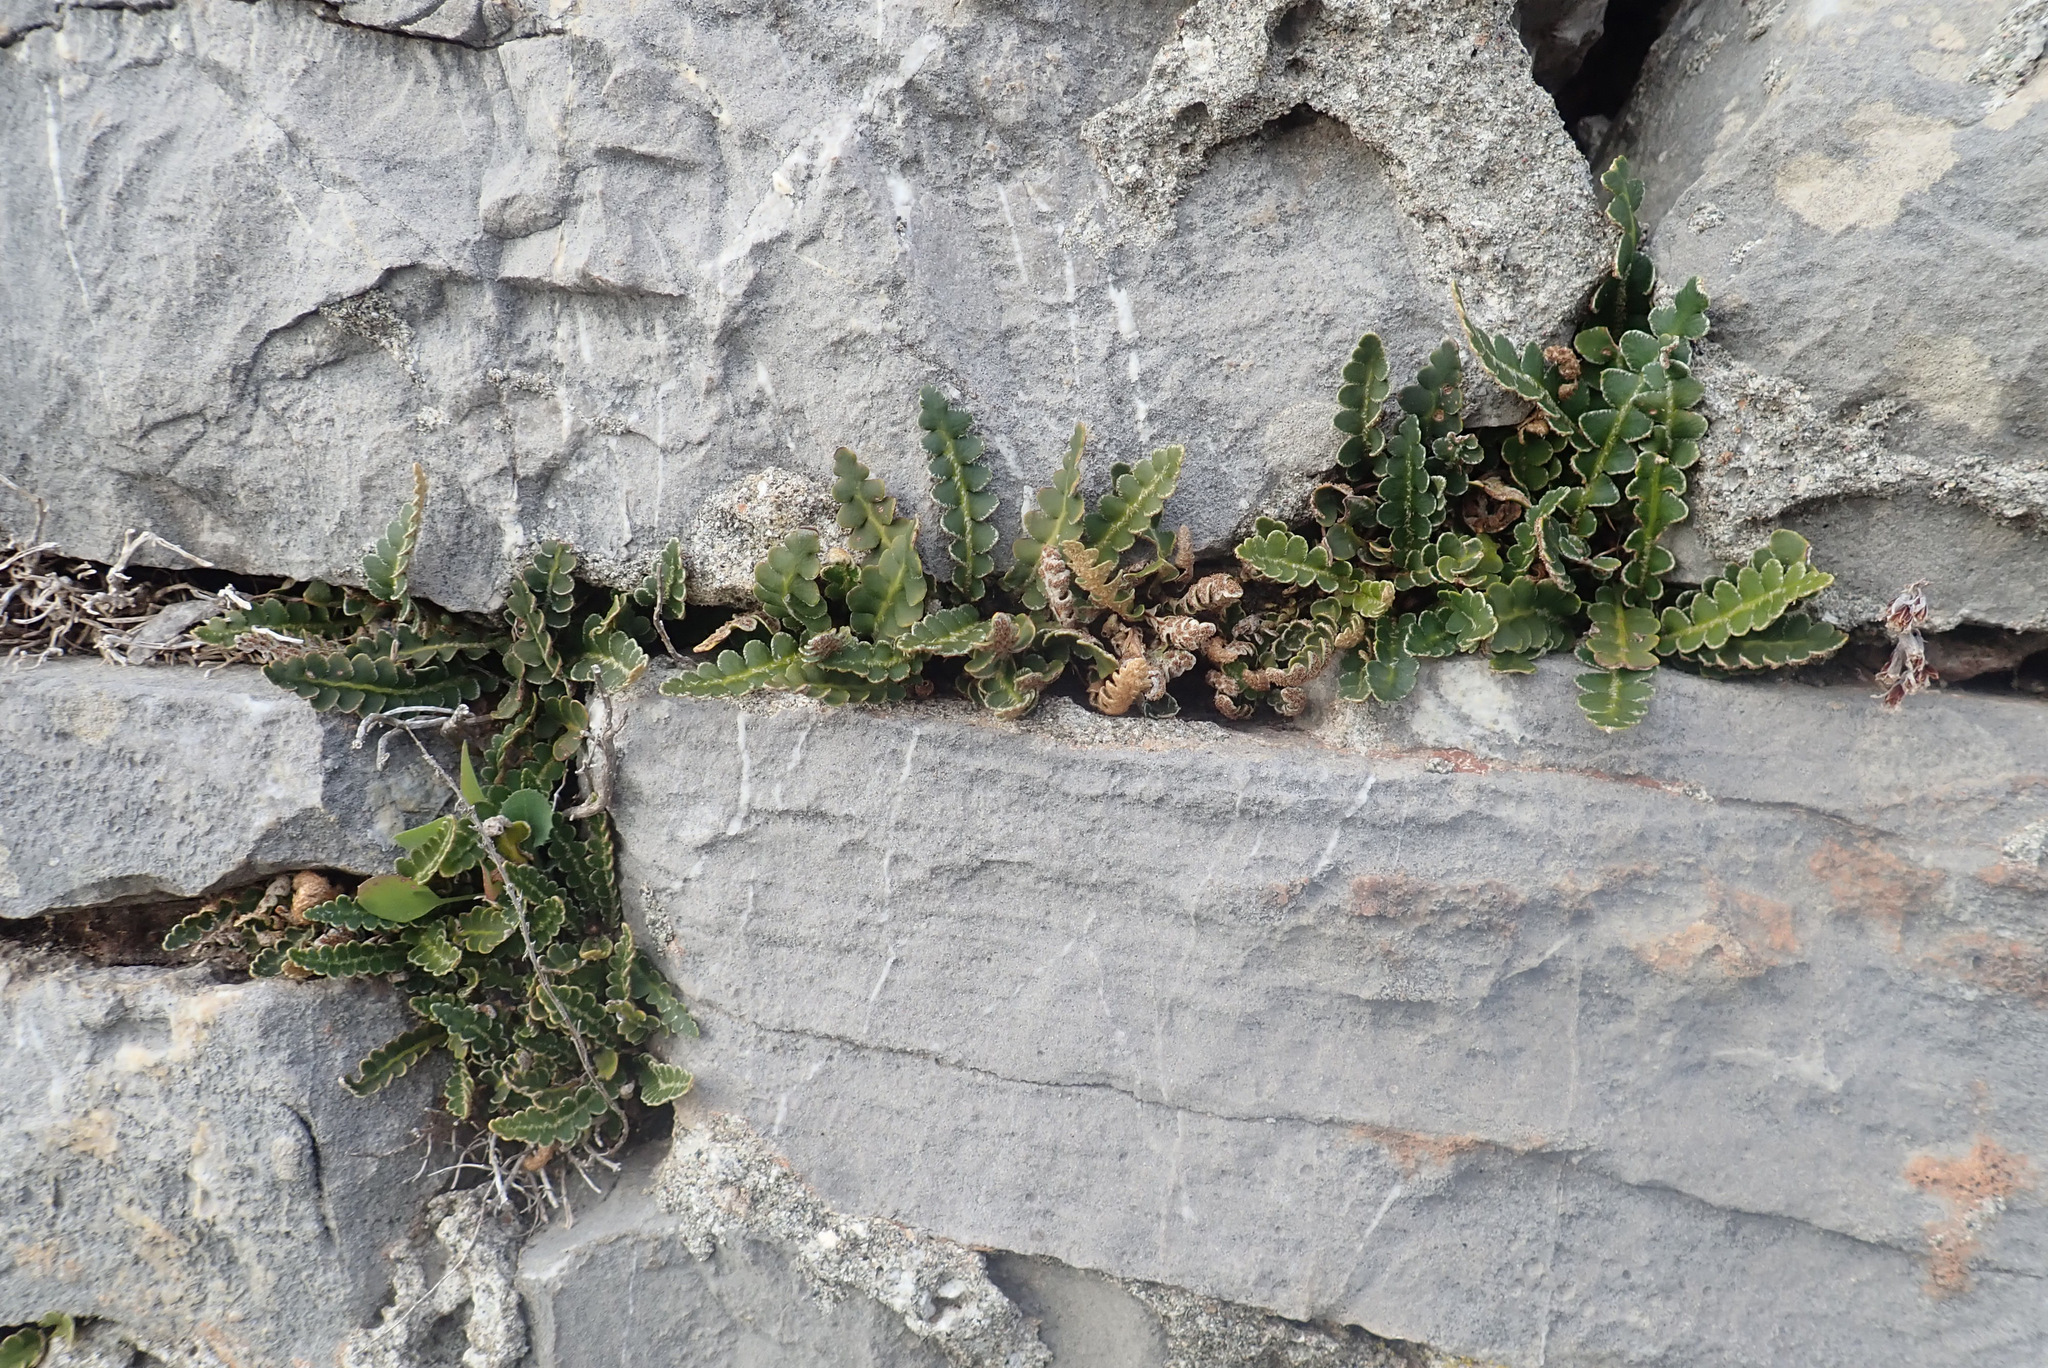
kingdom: Plantae
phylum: Tracheophyta
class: Polypodiopsida
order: Polypodiales
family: Aspleniaceae
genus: Asplenium
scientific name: Asplenium ceterach
